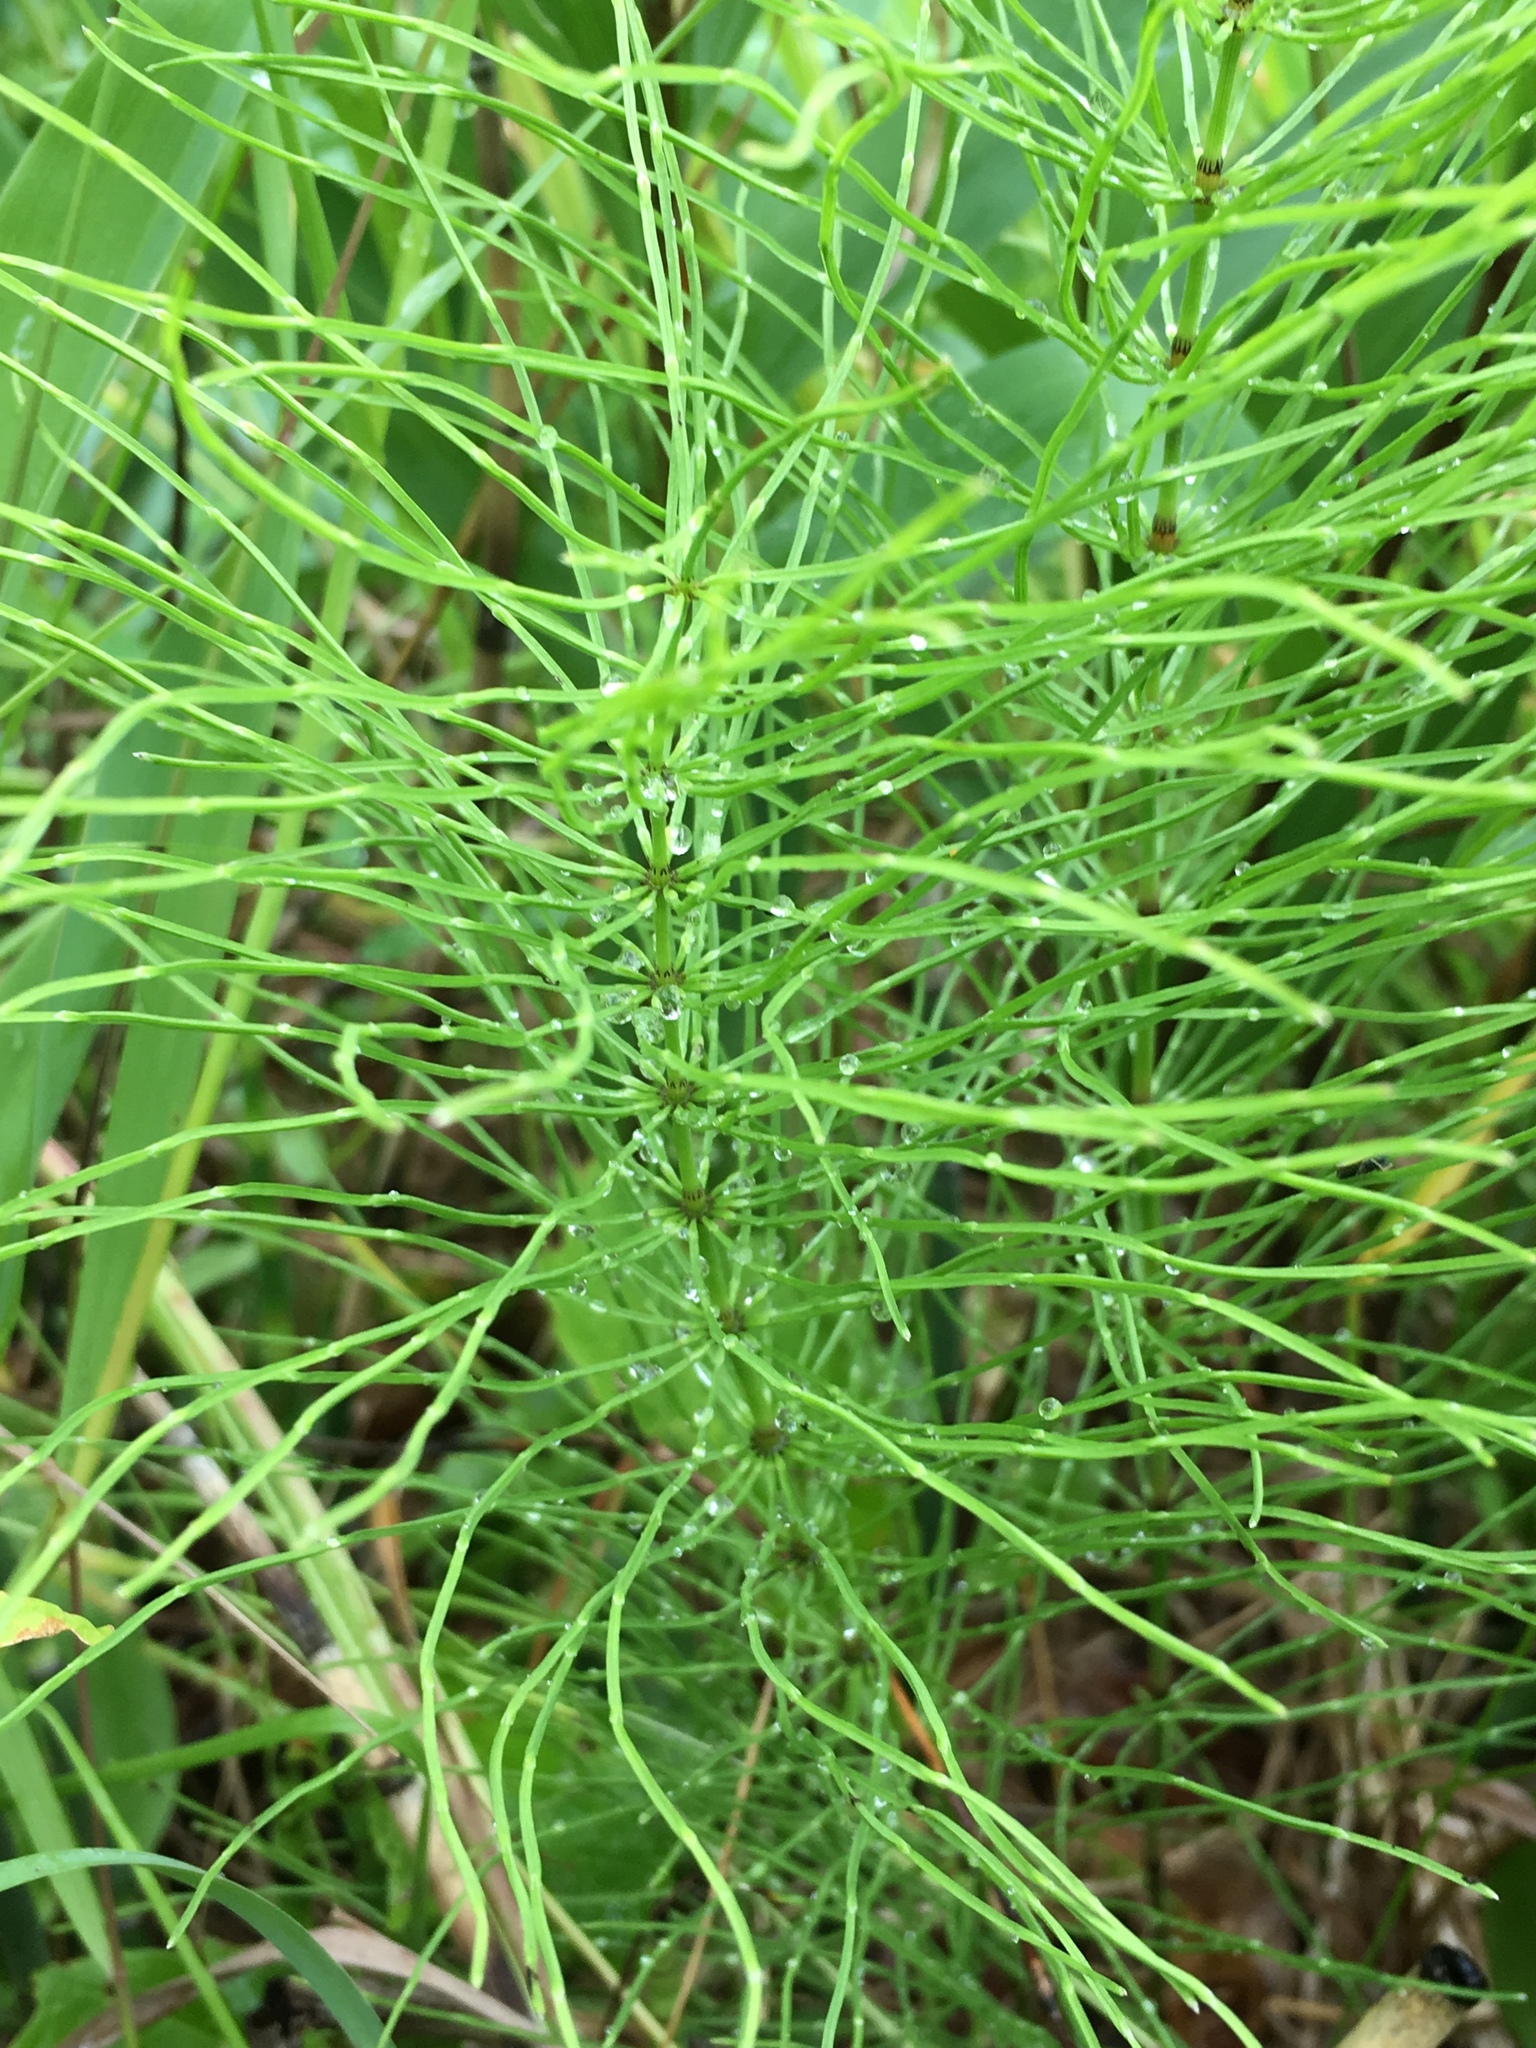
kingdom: Plantae
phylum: Tracheophyta
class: Polypodiopsida
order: Equisetales
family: Equisetaceae
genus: Equisetum
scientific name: Equisetum pratense
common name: Meadow horsetail
